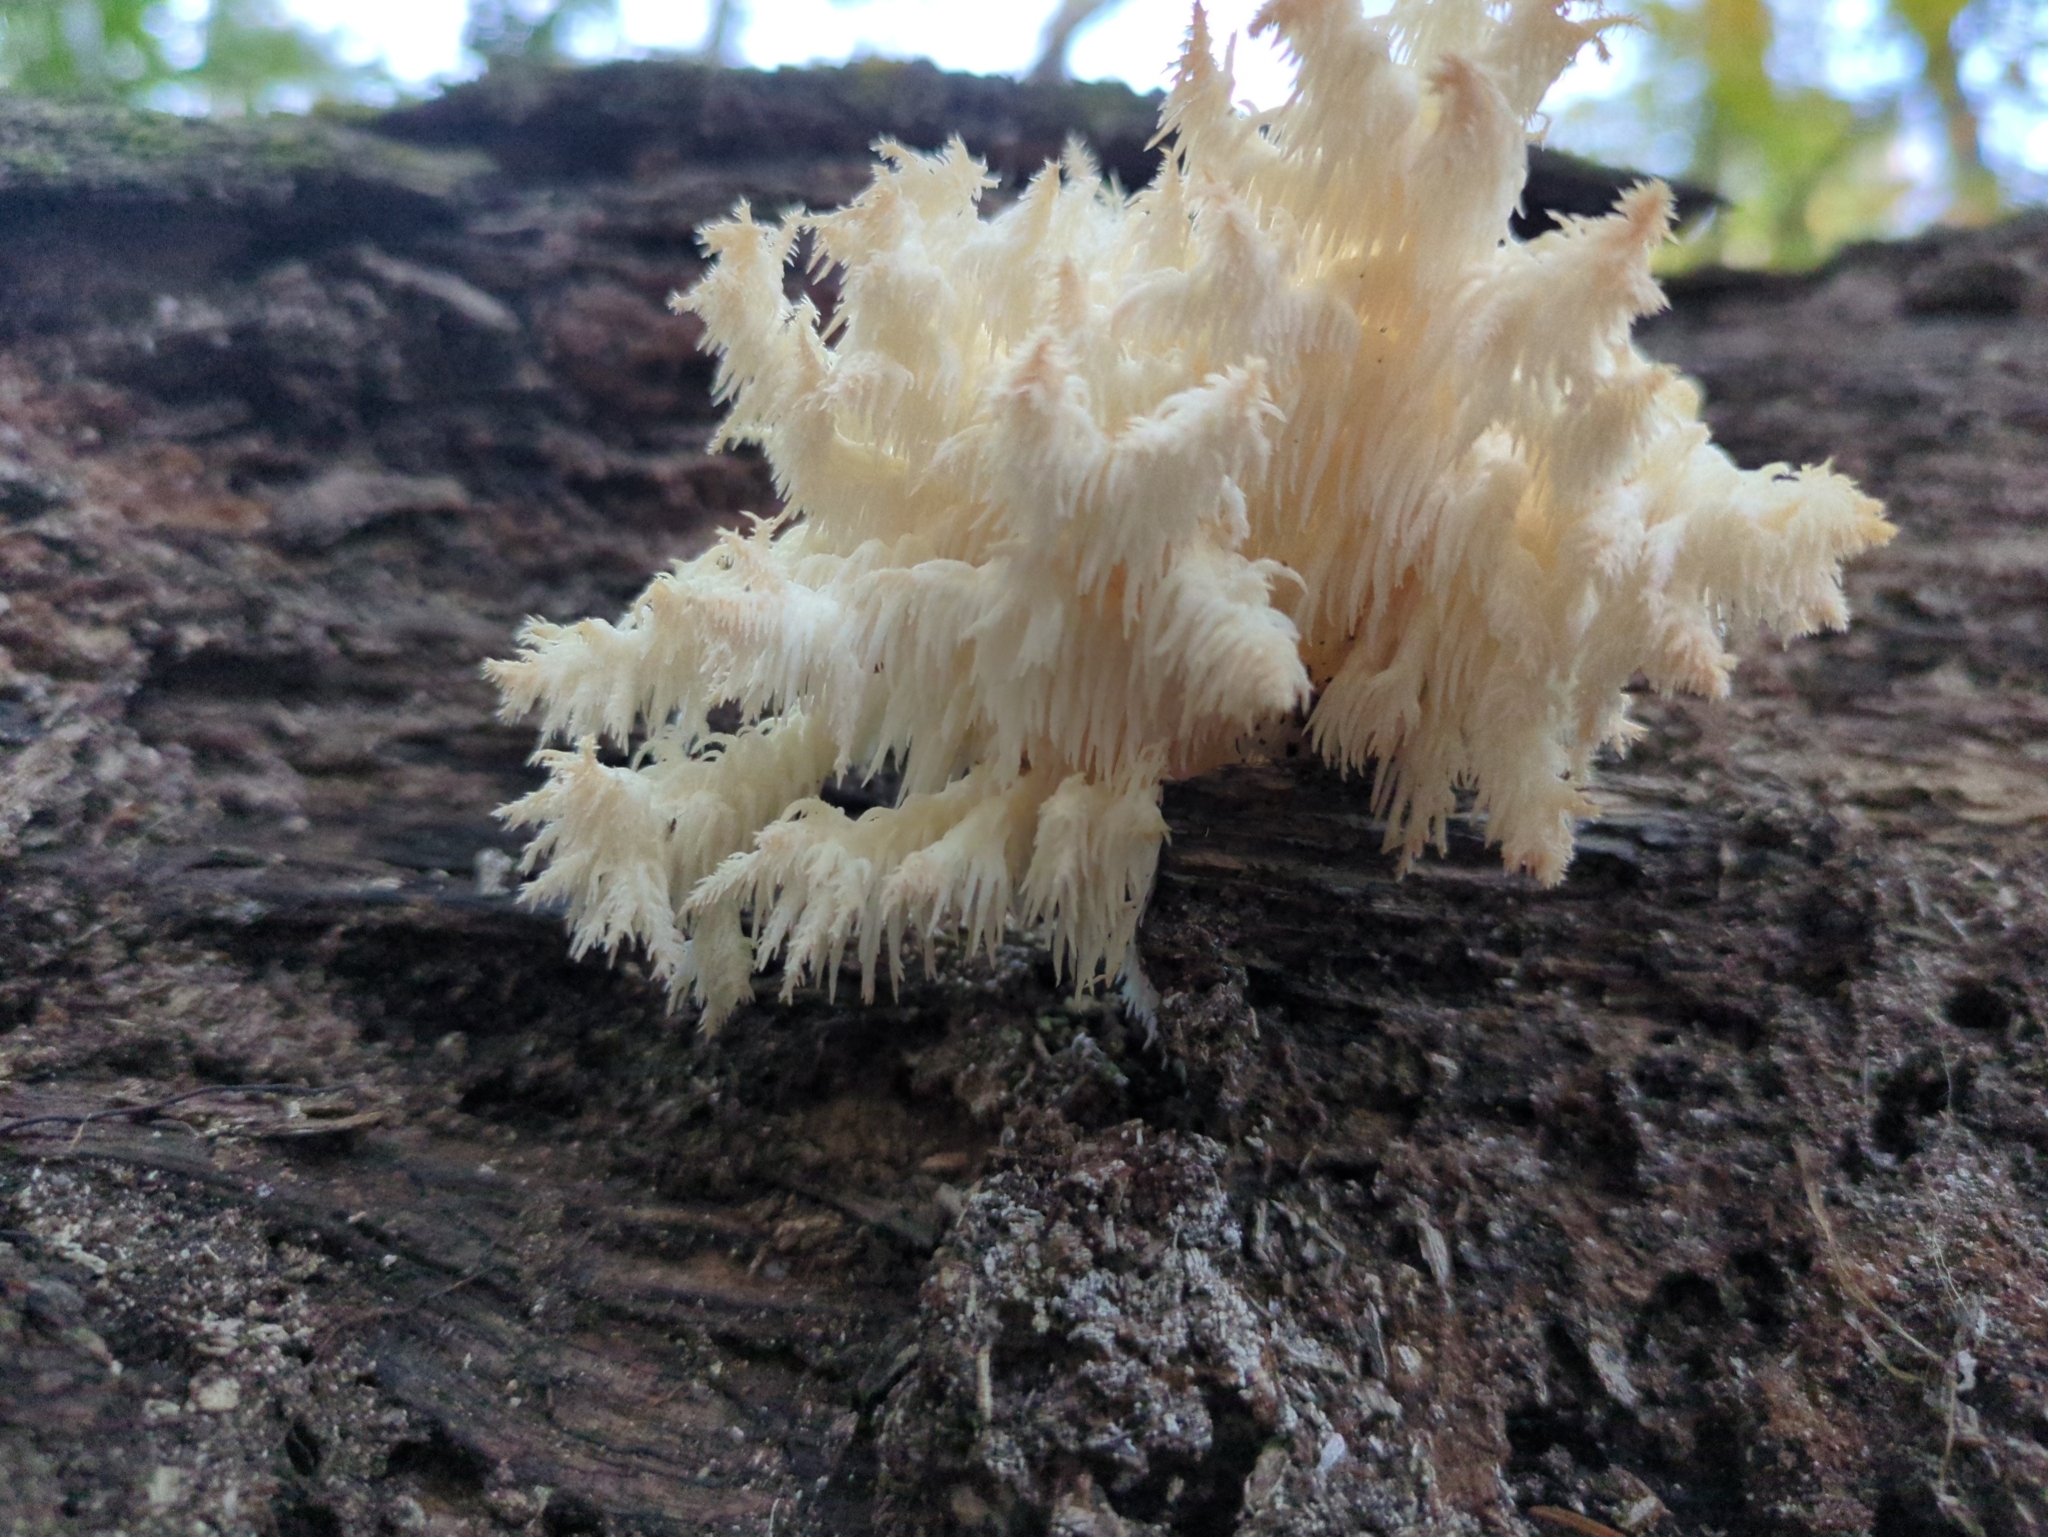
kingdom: Fungi
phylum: Basidiomycota
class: Agaricomycetes
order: Russulales
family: Hericiaceae
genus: Hericium
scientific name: Hericium coralloides
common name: Coral tooth
